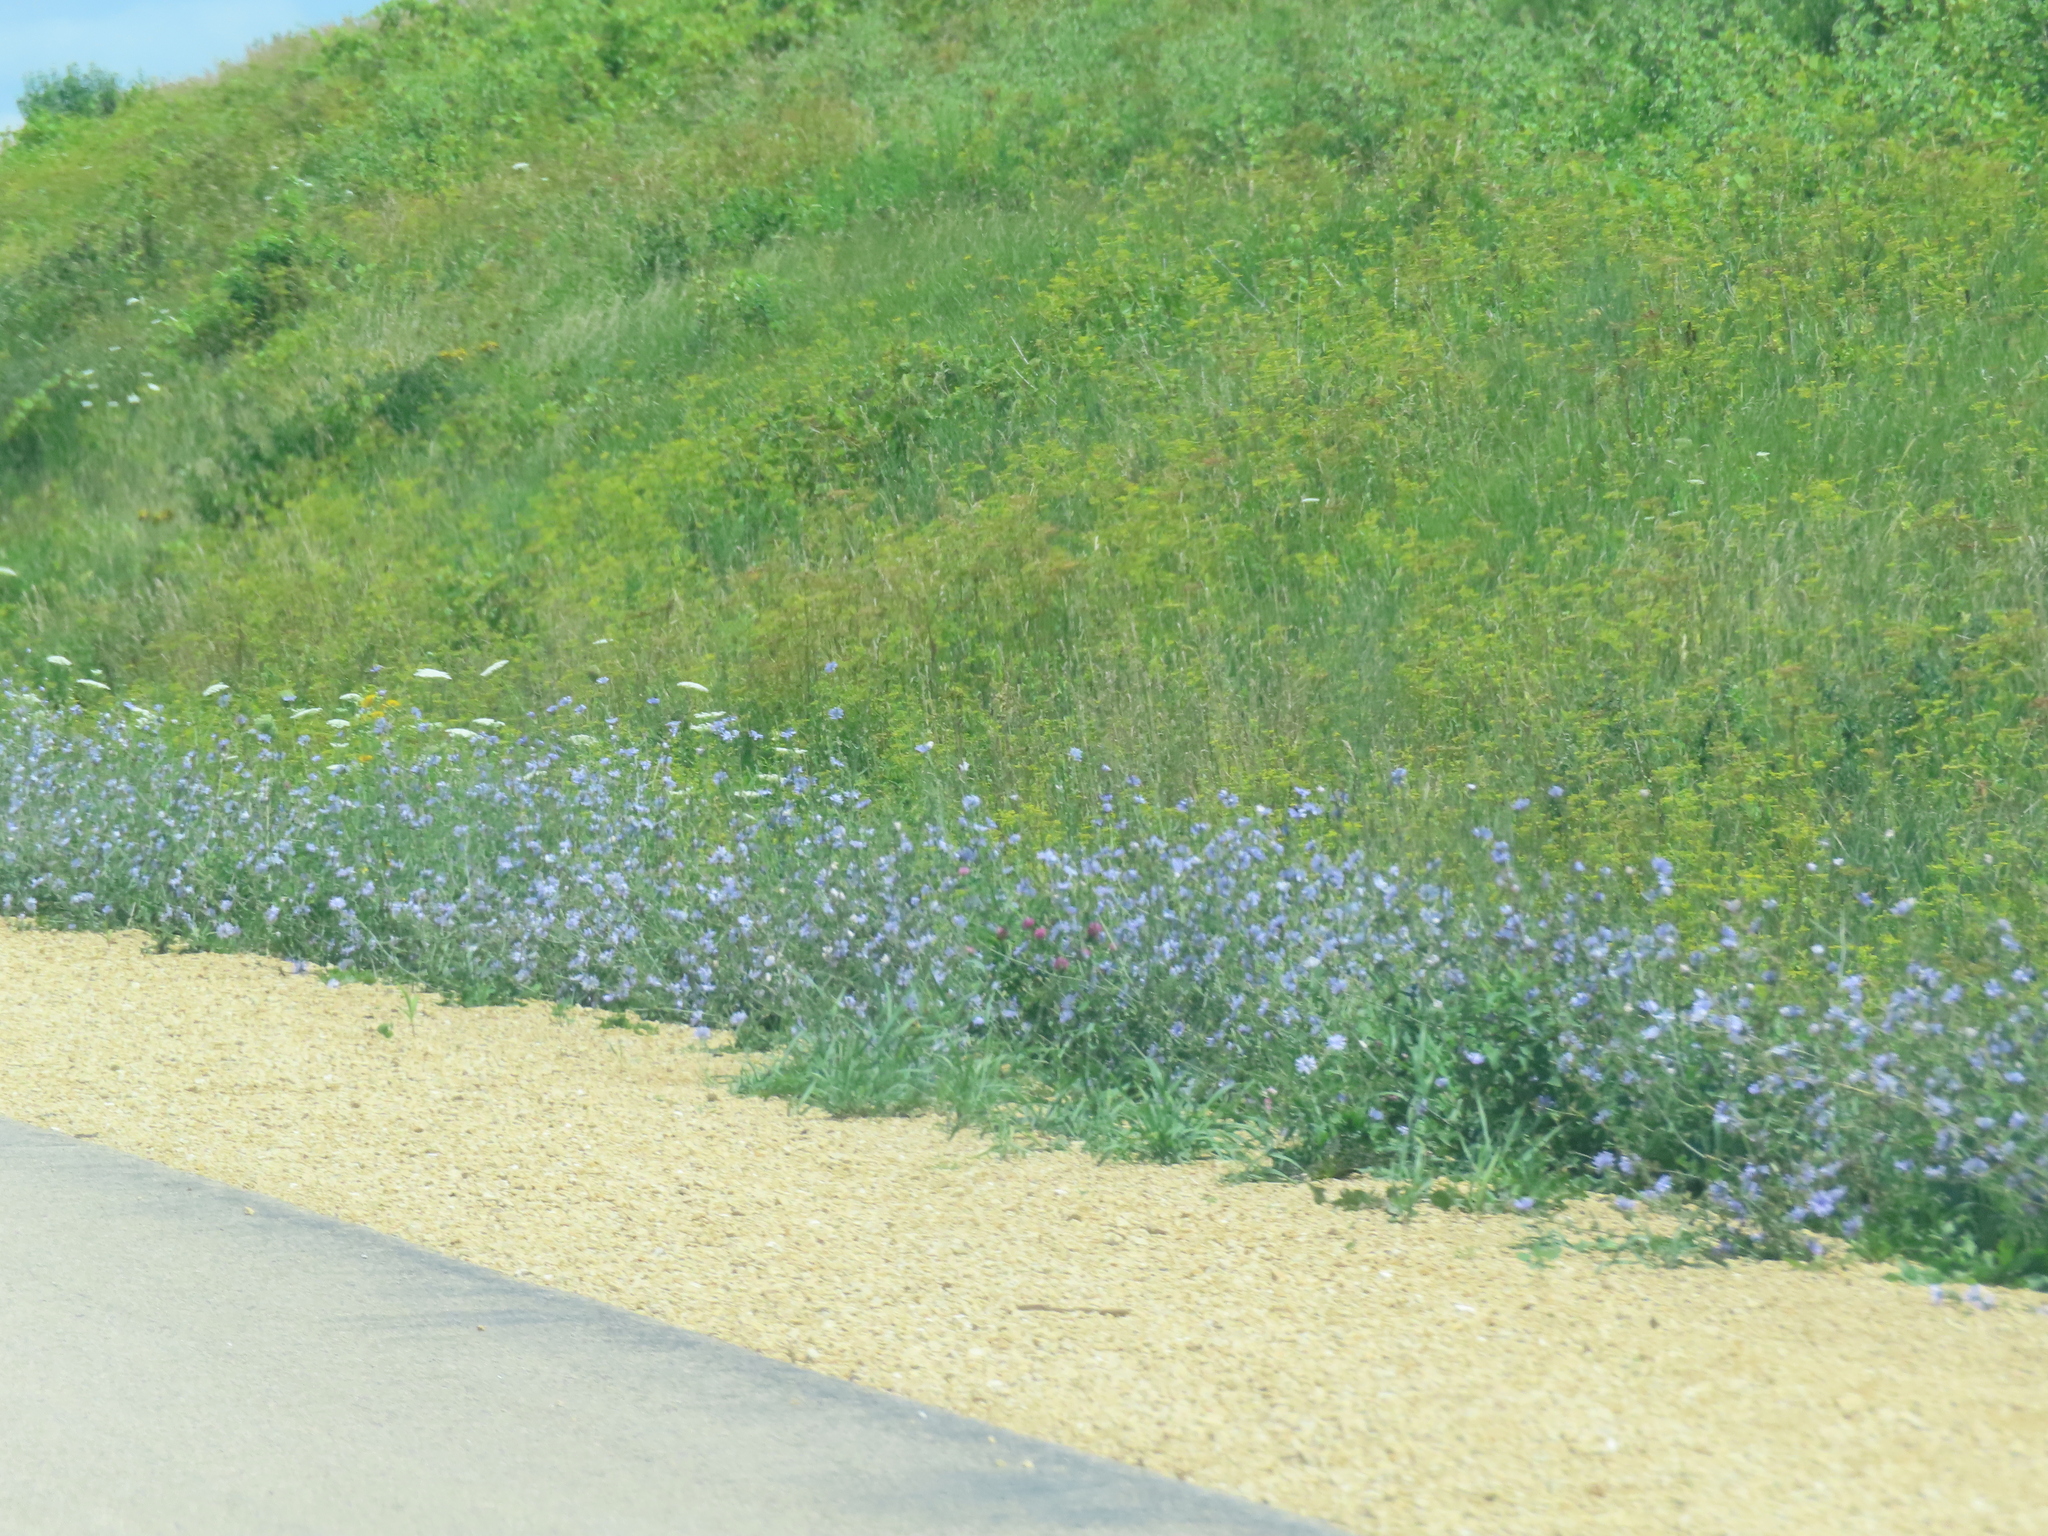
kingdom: Plantae
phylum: Tracheophyta
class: Magnoliopsida
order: Asterales
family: Asteraceae
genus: Cichorium
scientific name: Cichorium intybus
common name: Chicory
